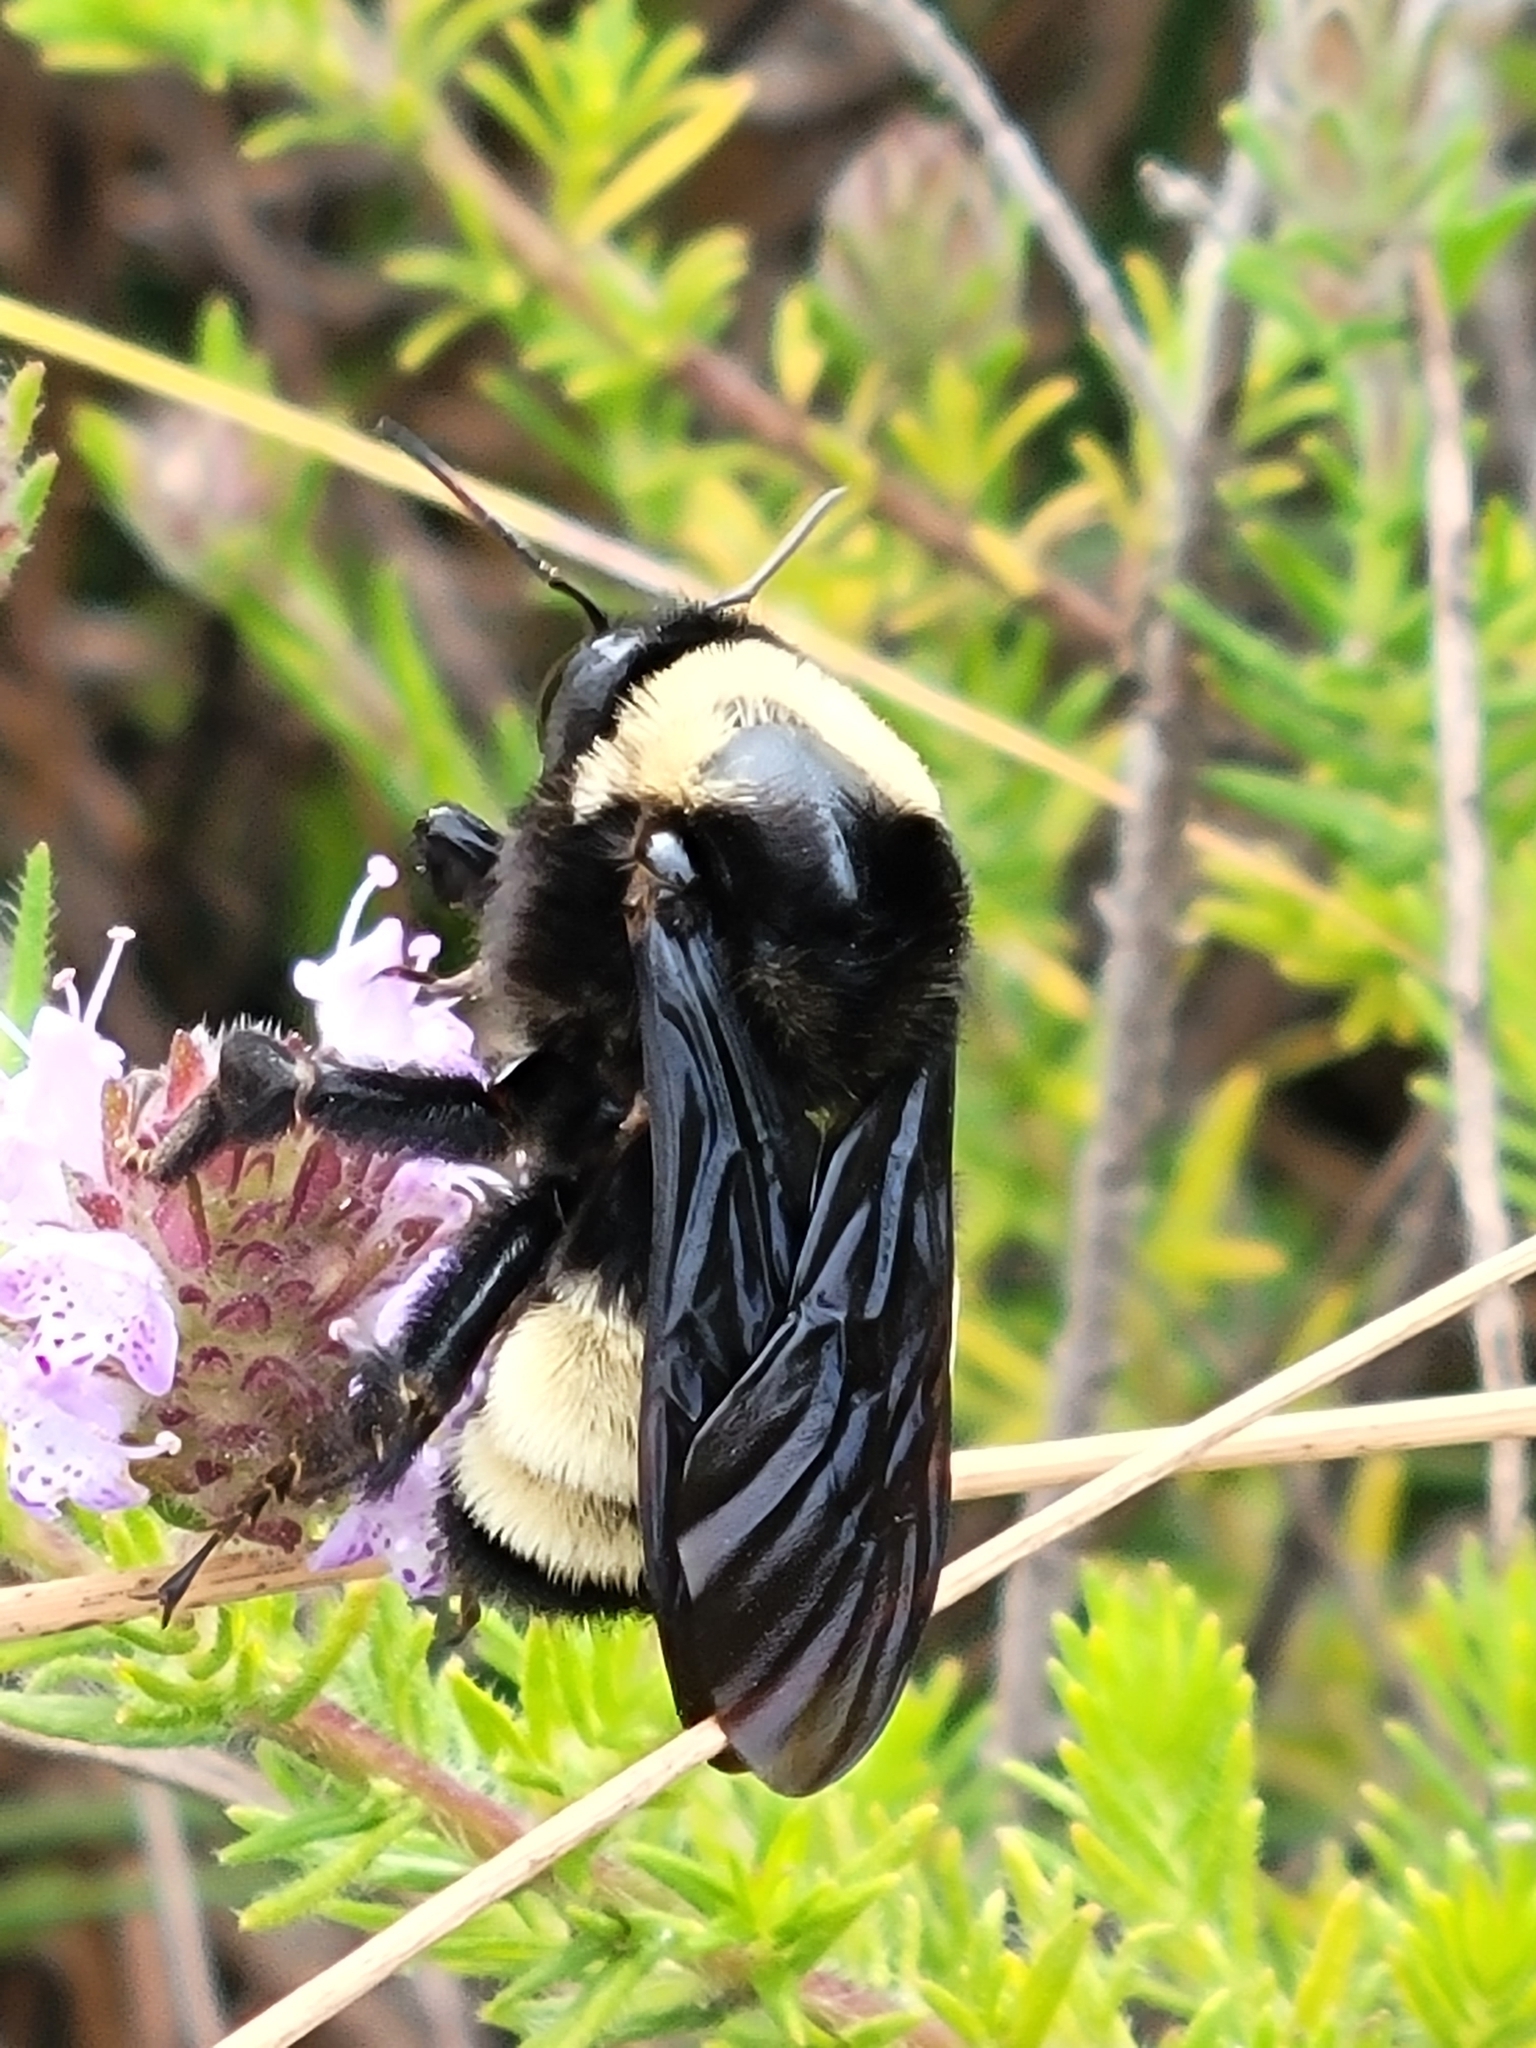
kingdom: Animalia
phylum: Arthropoda
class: Insecta
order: Hymenoptera
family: Apidae
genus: Bombus
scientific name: Bombus pensylvanicus
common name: Bumble bee
